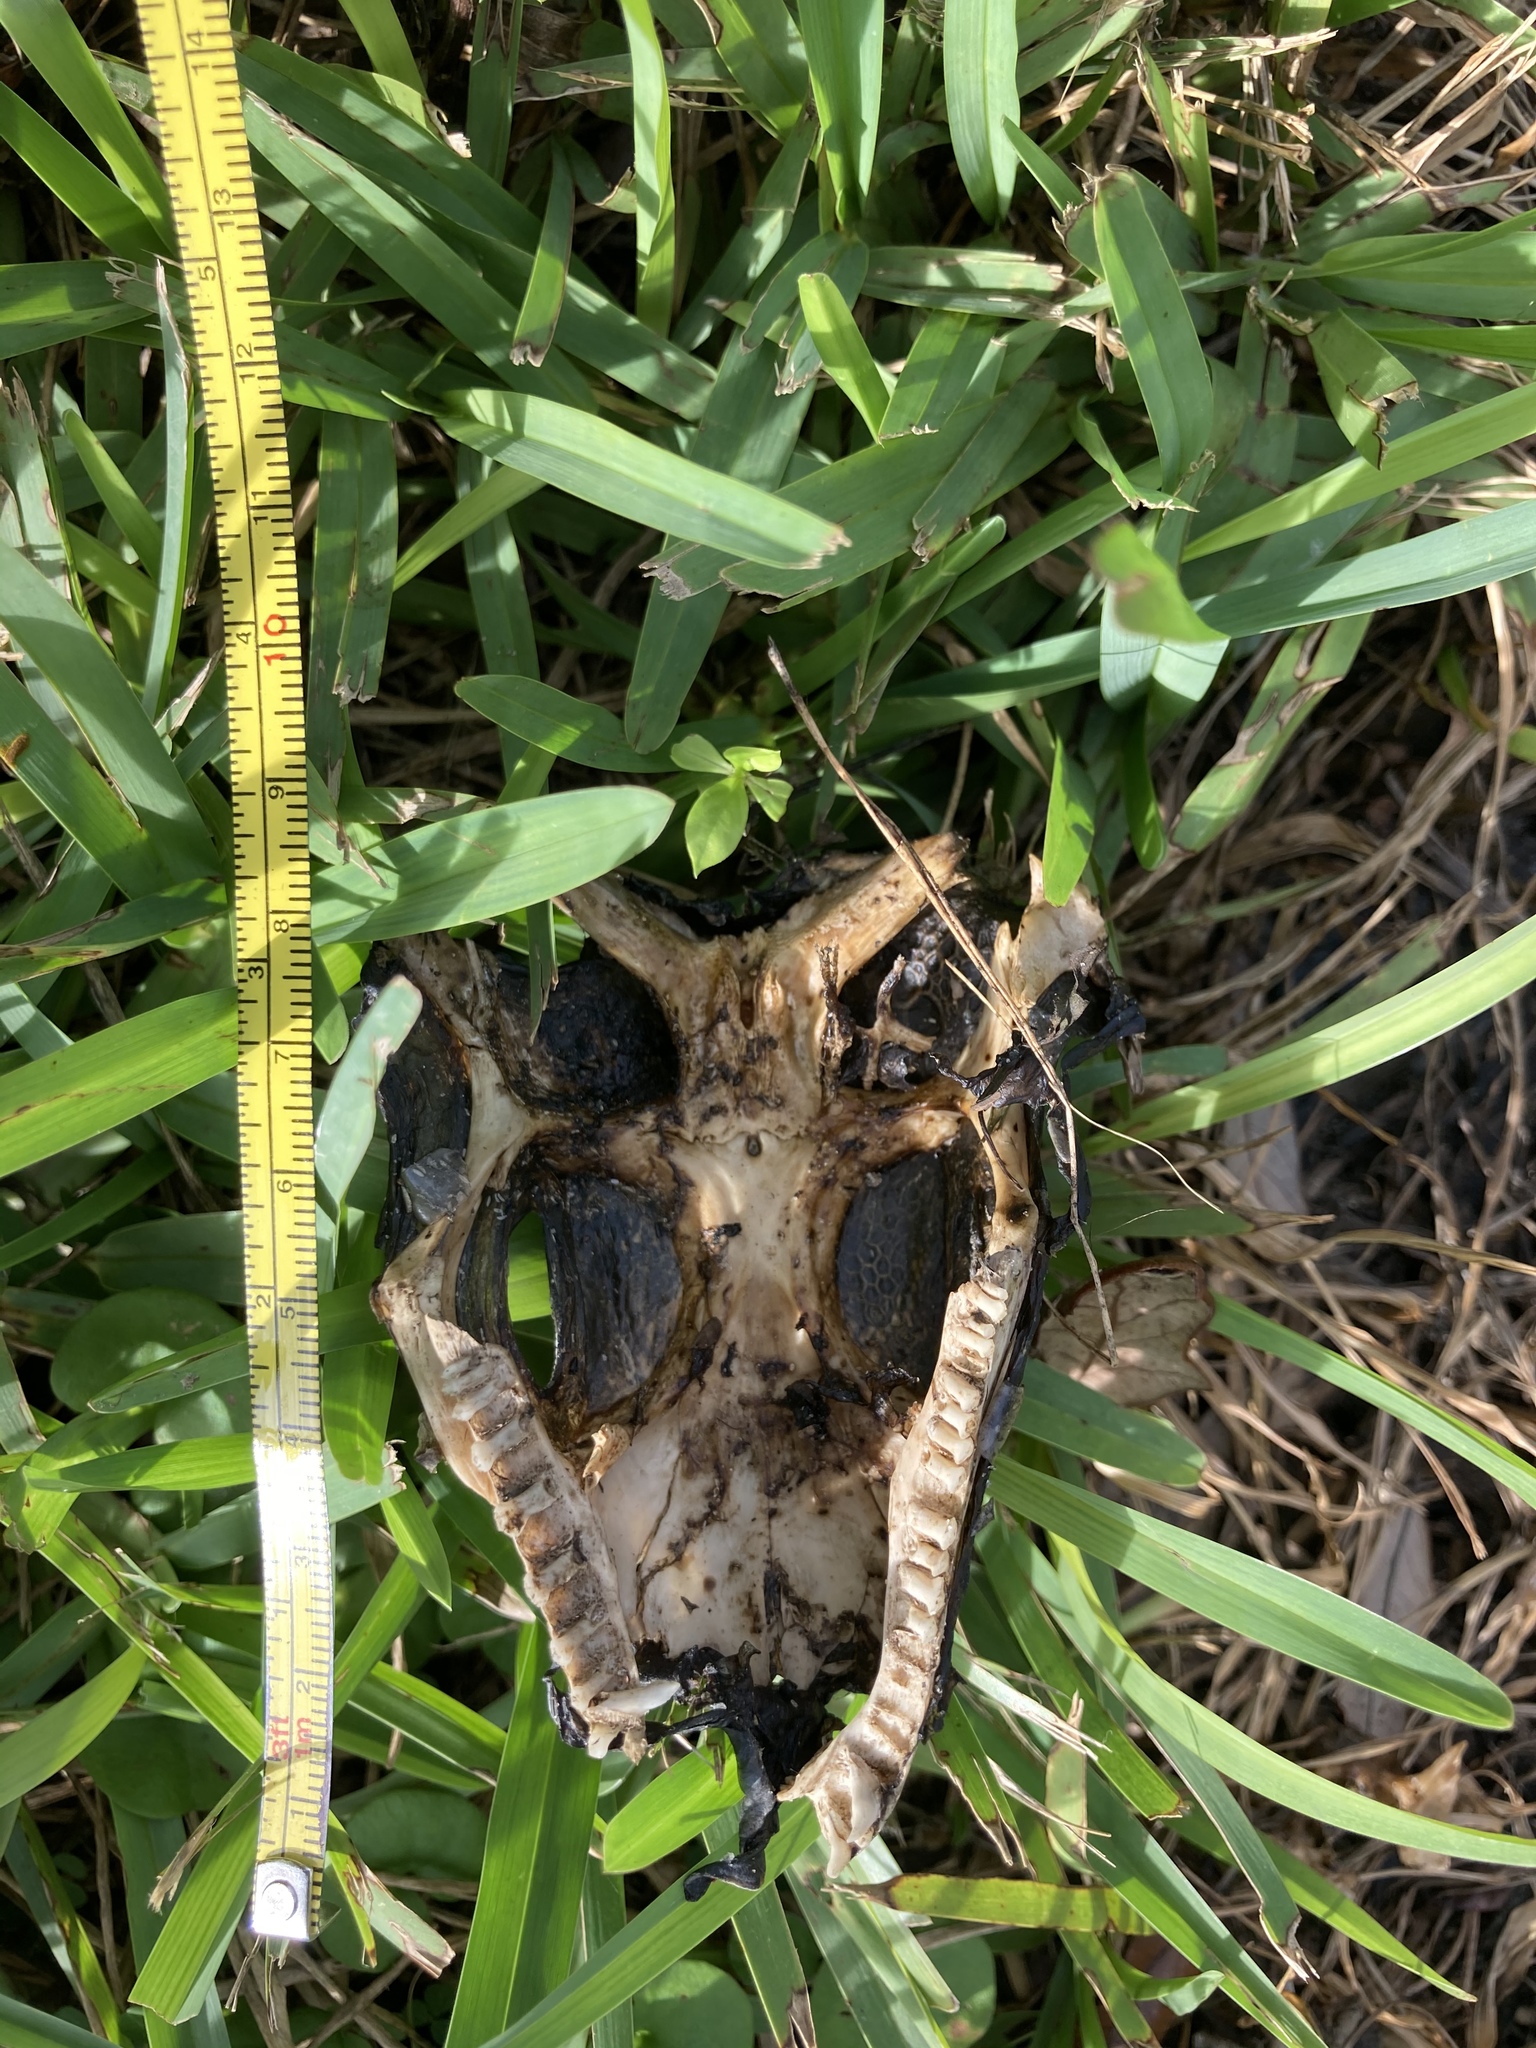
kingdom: Animalia
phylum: Chordata
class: Squamata
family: Iguanidae
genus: Iguana
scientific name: Iguana iguana
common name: Green iguana
